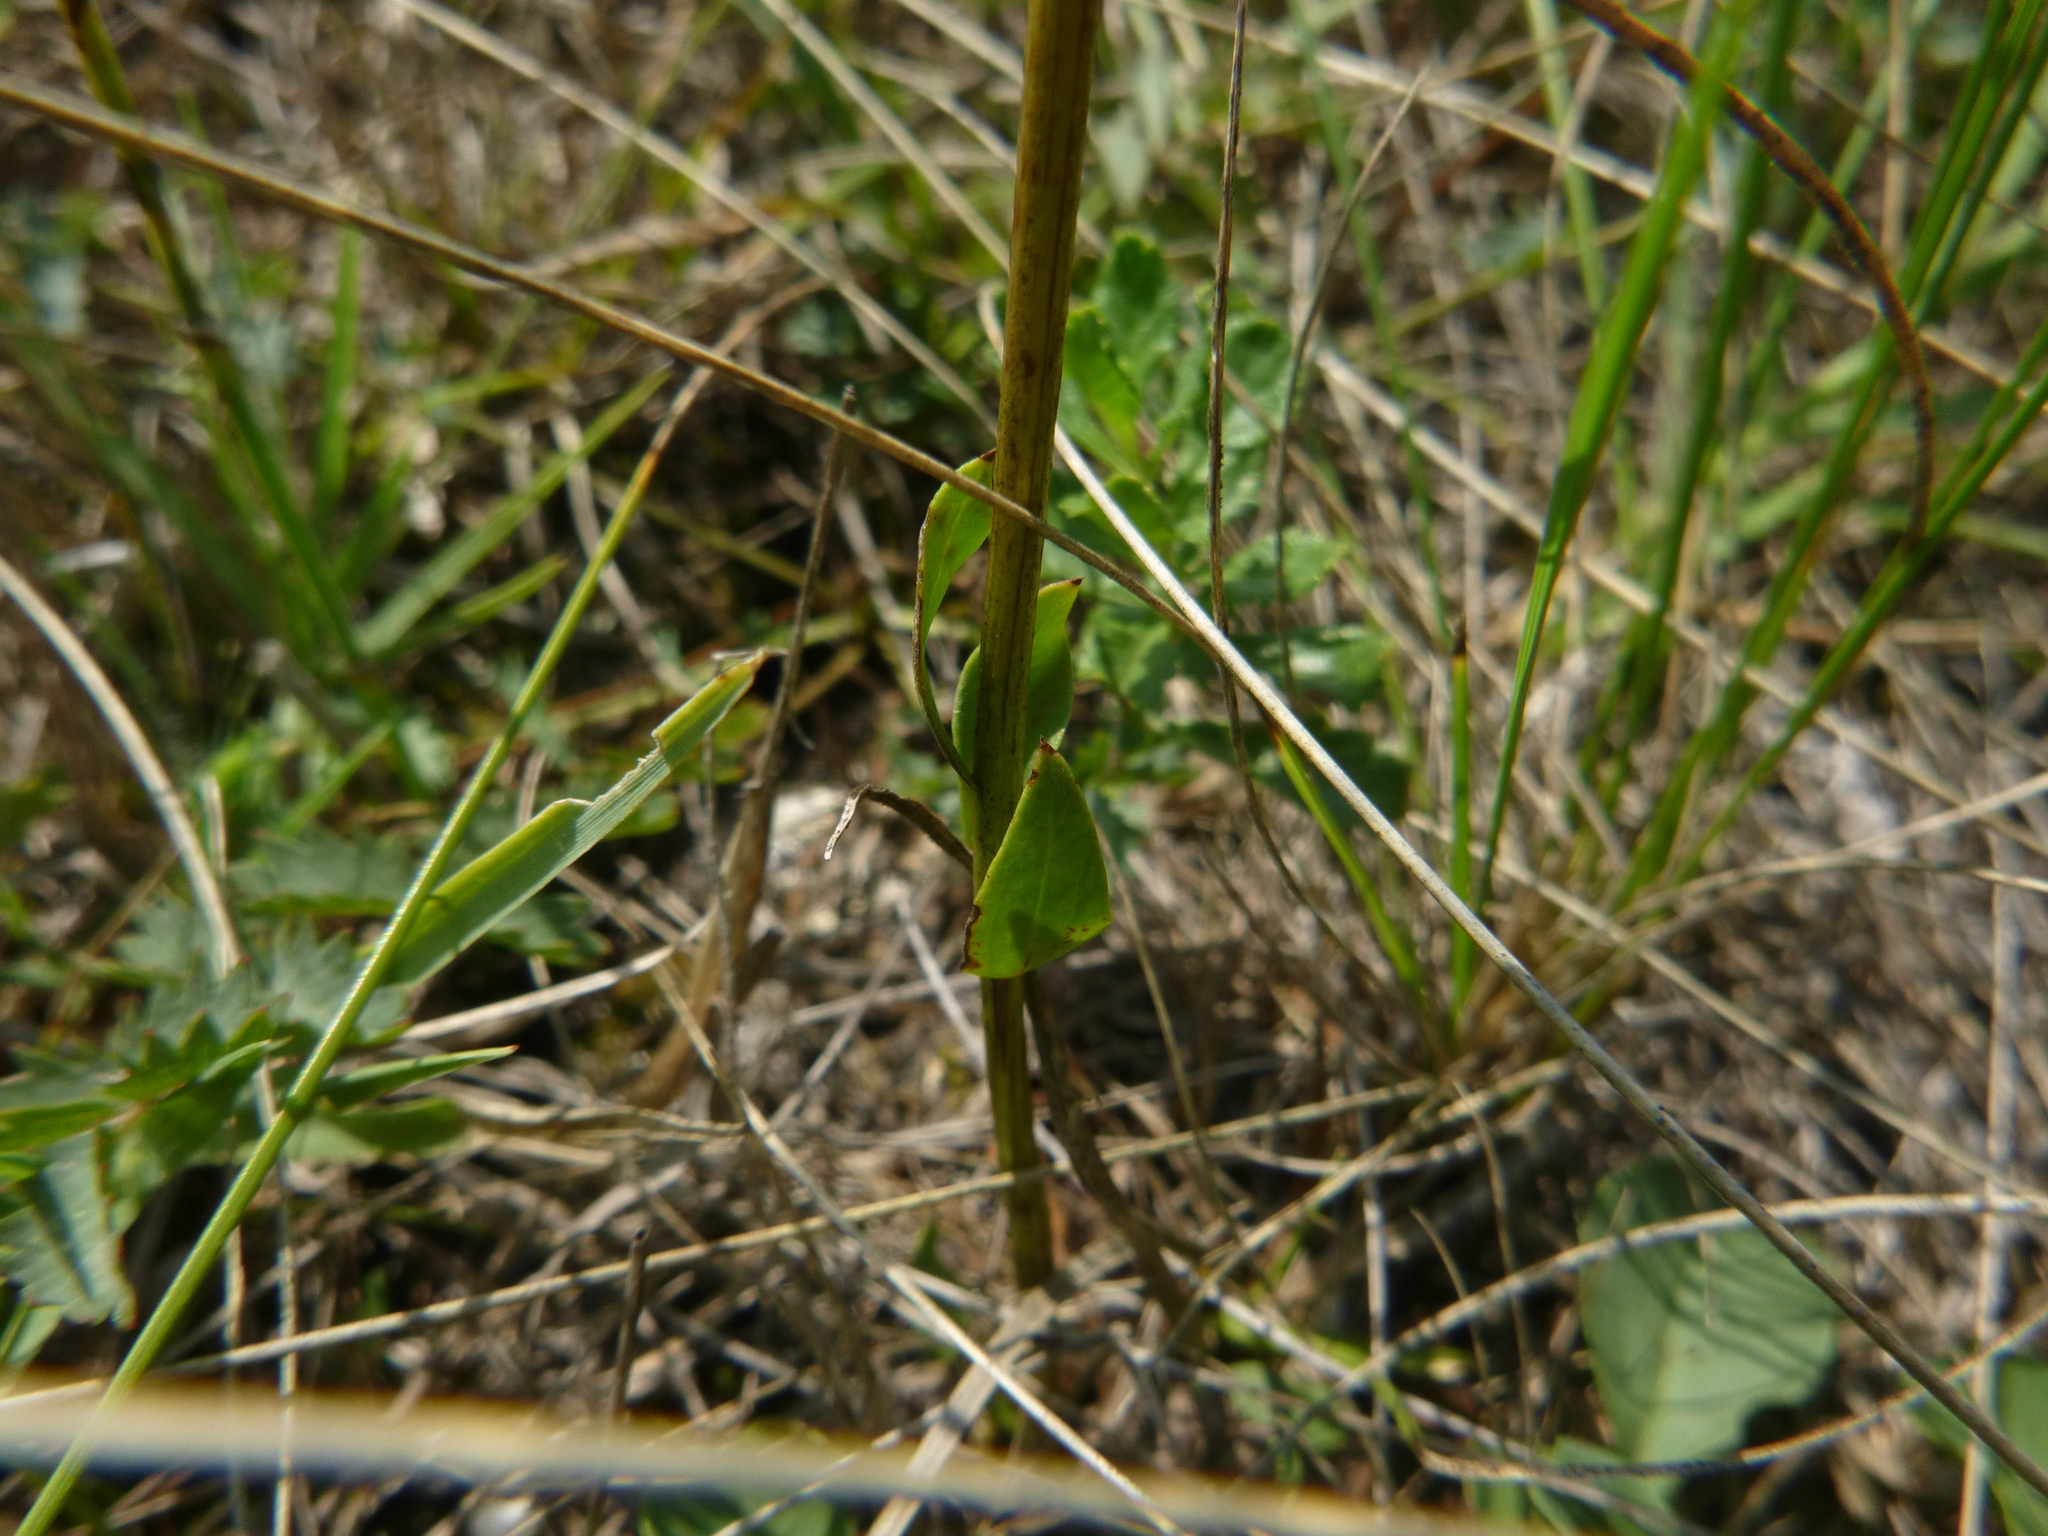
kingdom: Plantae
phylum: Tracheophyta
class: Magnoliopsida
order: Lamiales
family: Plantaginaceae
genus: Globularia
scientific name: Globularia bisnagarica
